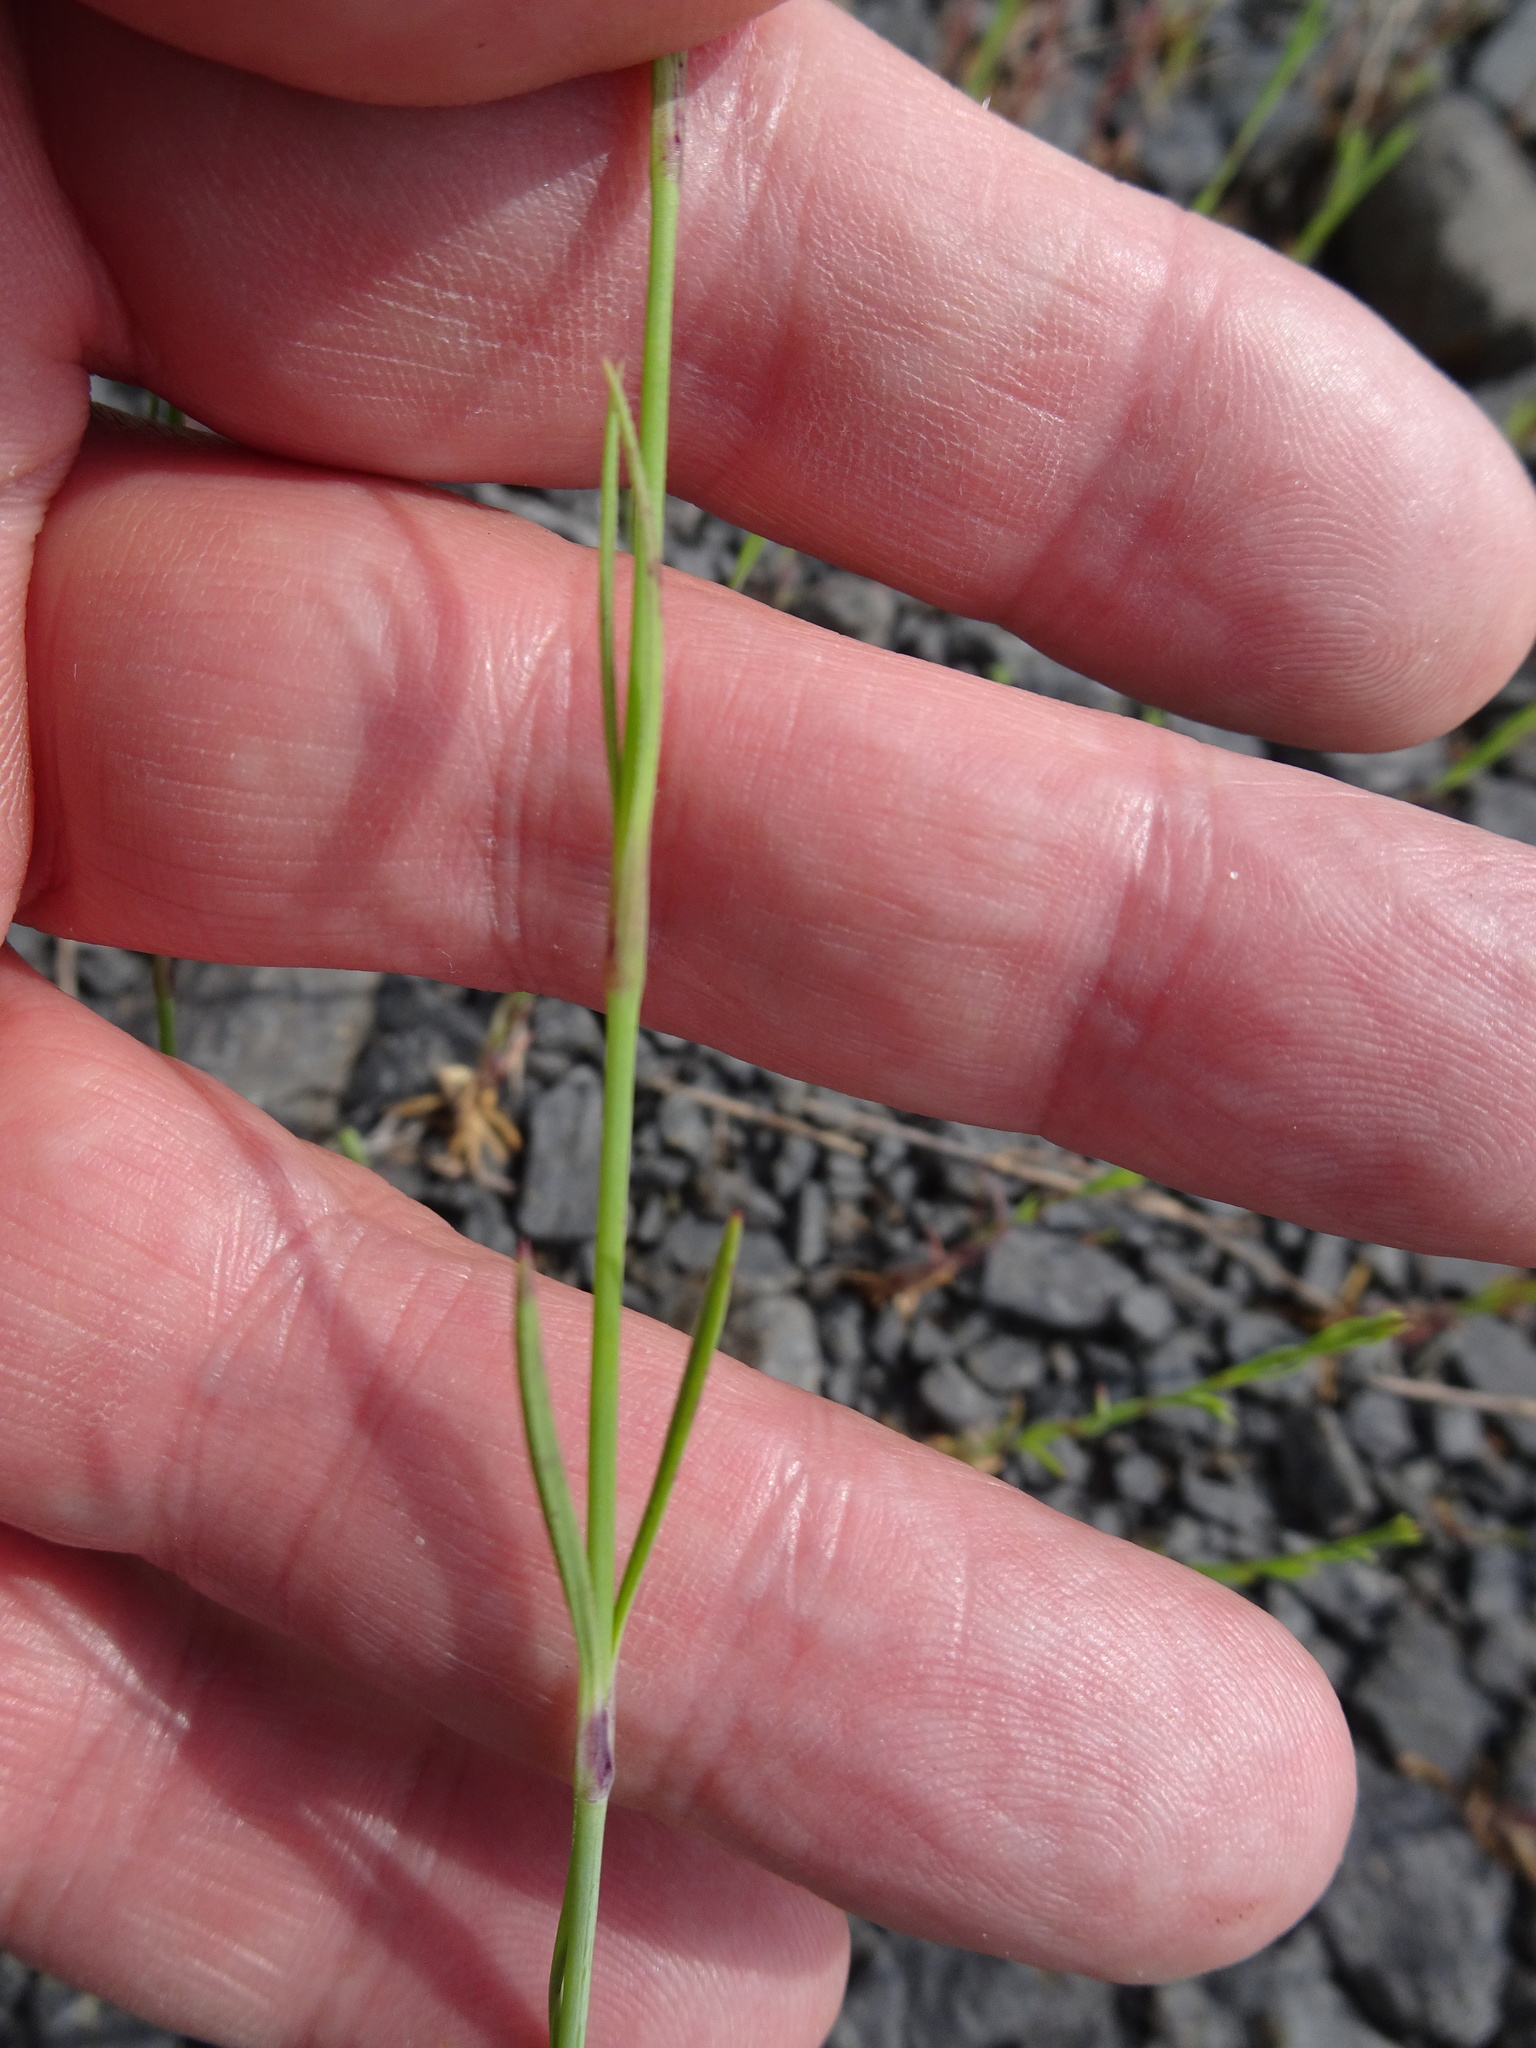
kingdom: Plantae
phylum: Tracheophyta
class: Magnoliopsida
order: Caryophyllales
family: Caryophyllaceae
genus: Petrorhagia
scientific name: Petrorhagia prolifera
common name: Proliferous pink
